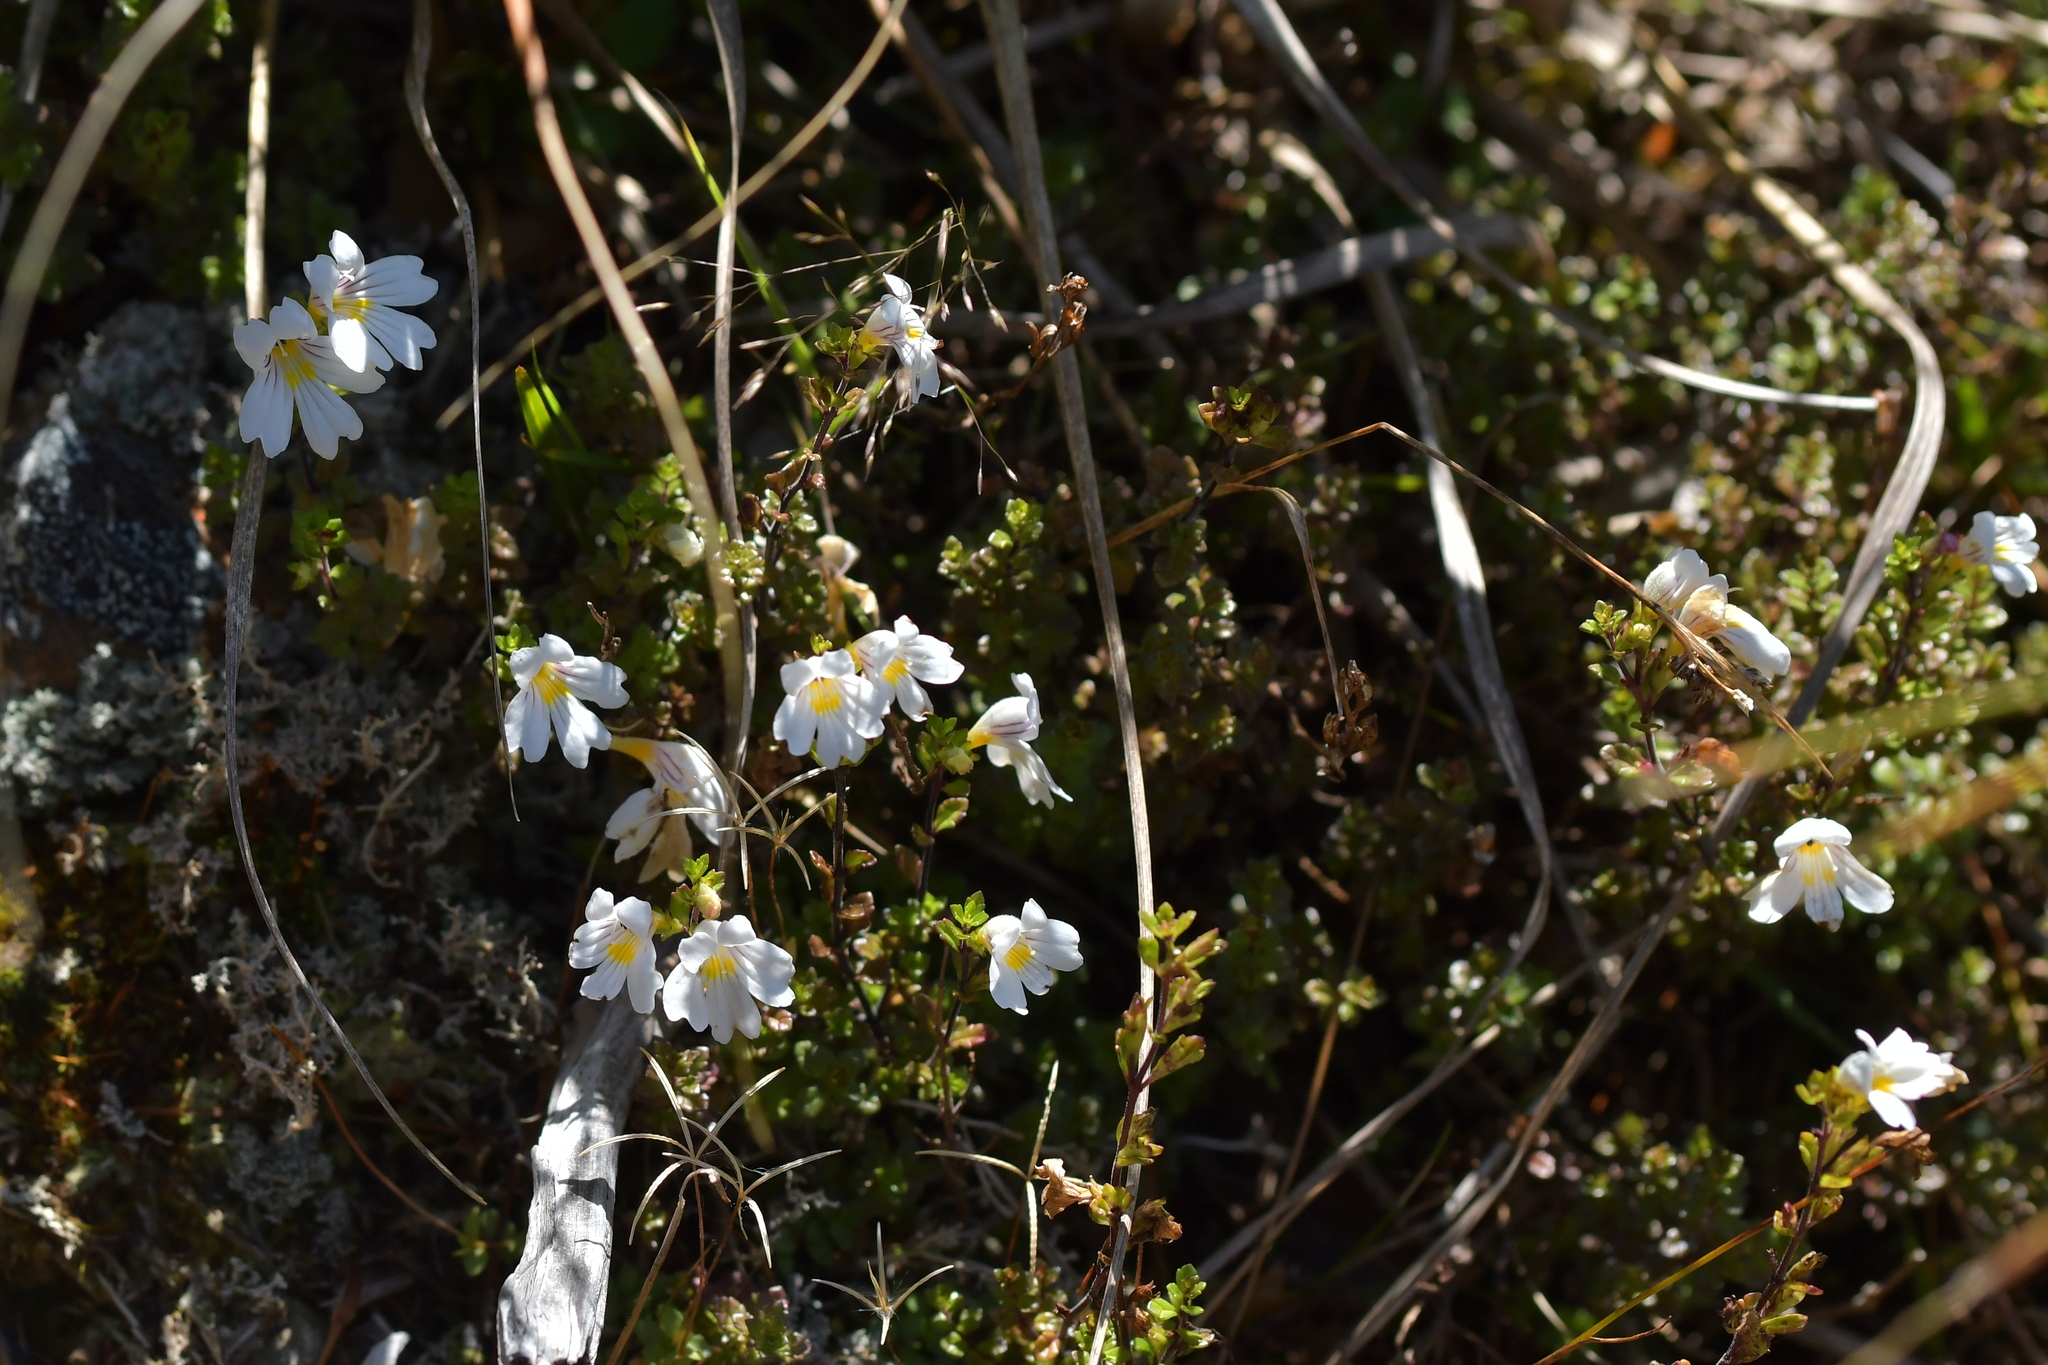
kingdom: Plantae
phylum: Tracheophyta
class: Magnoliopsida
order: Lamiales
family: Orobanchaceae
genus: Euphrasia
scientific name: Euphrasia cuneata
